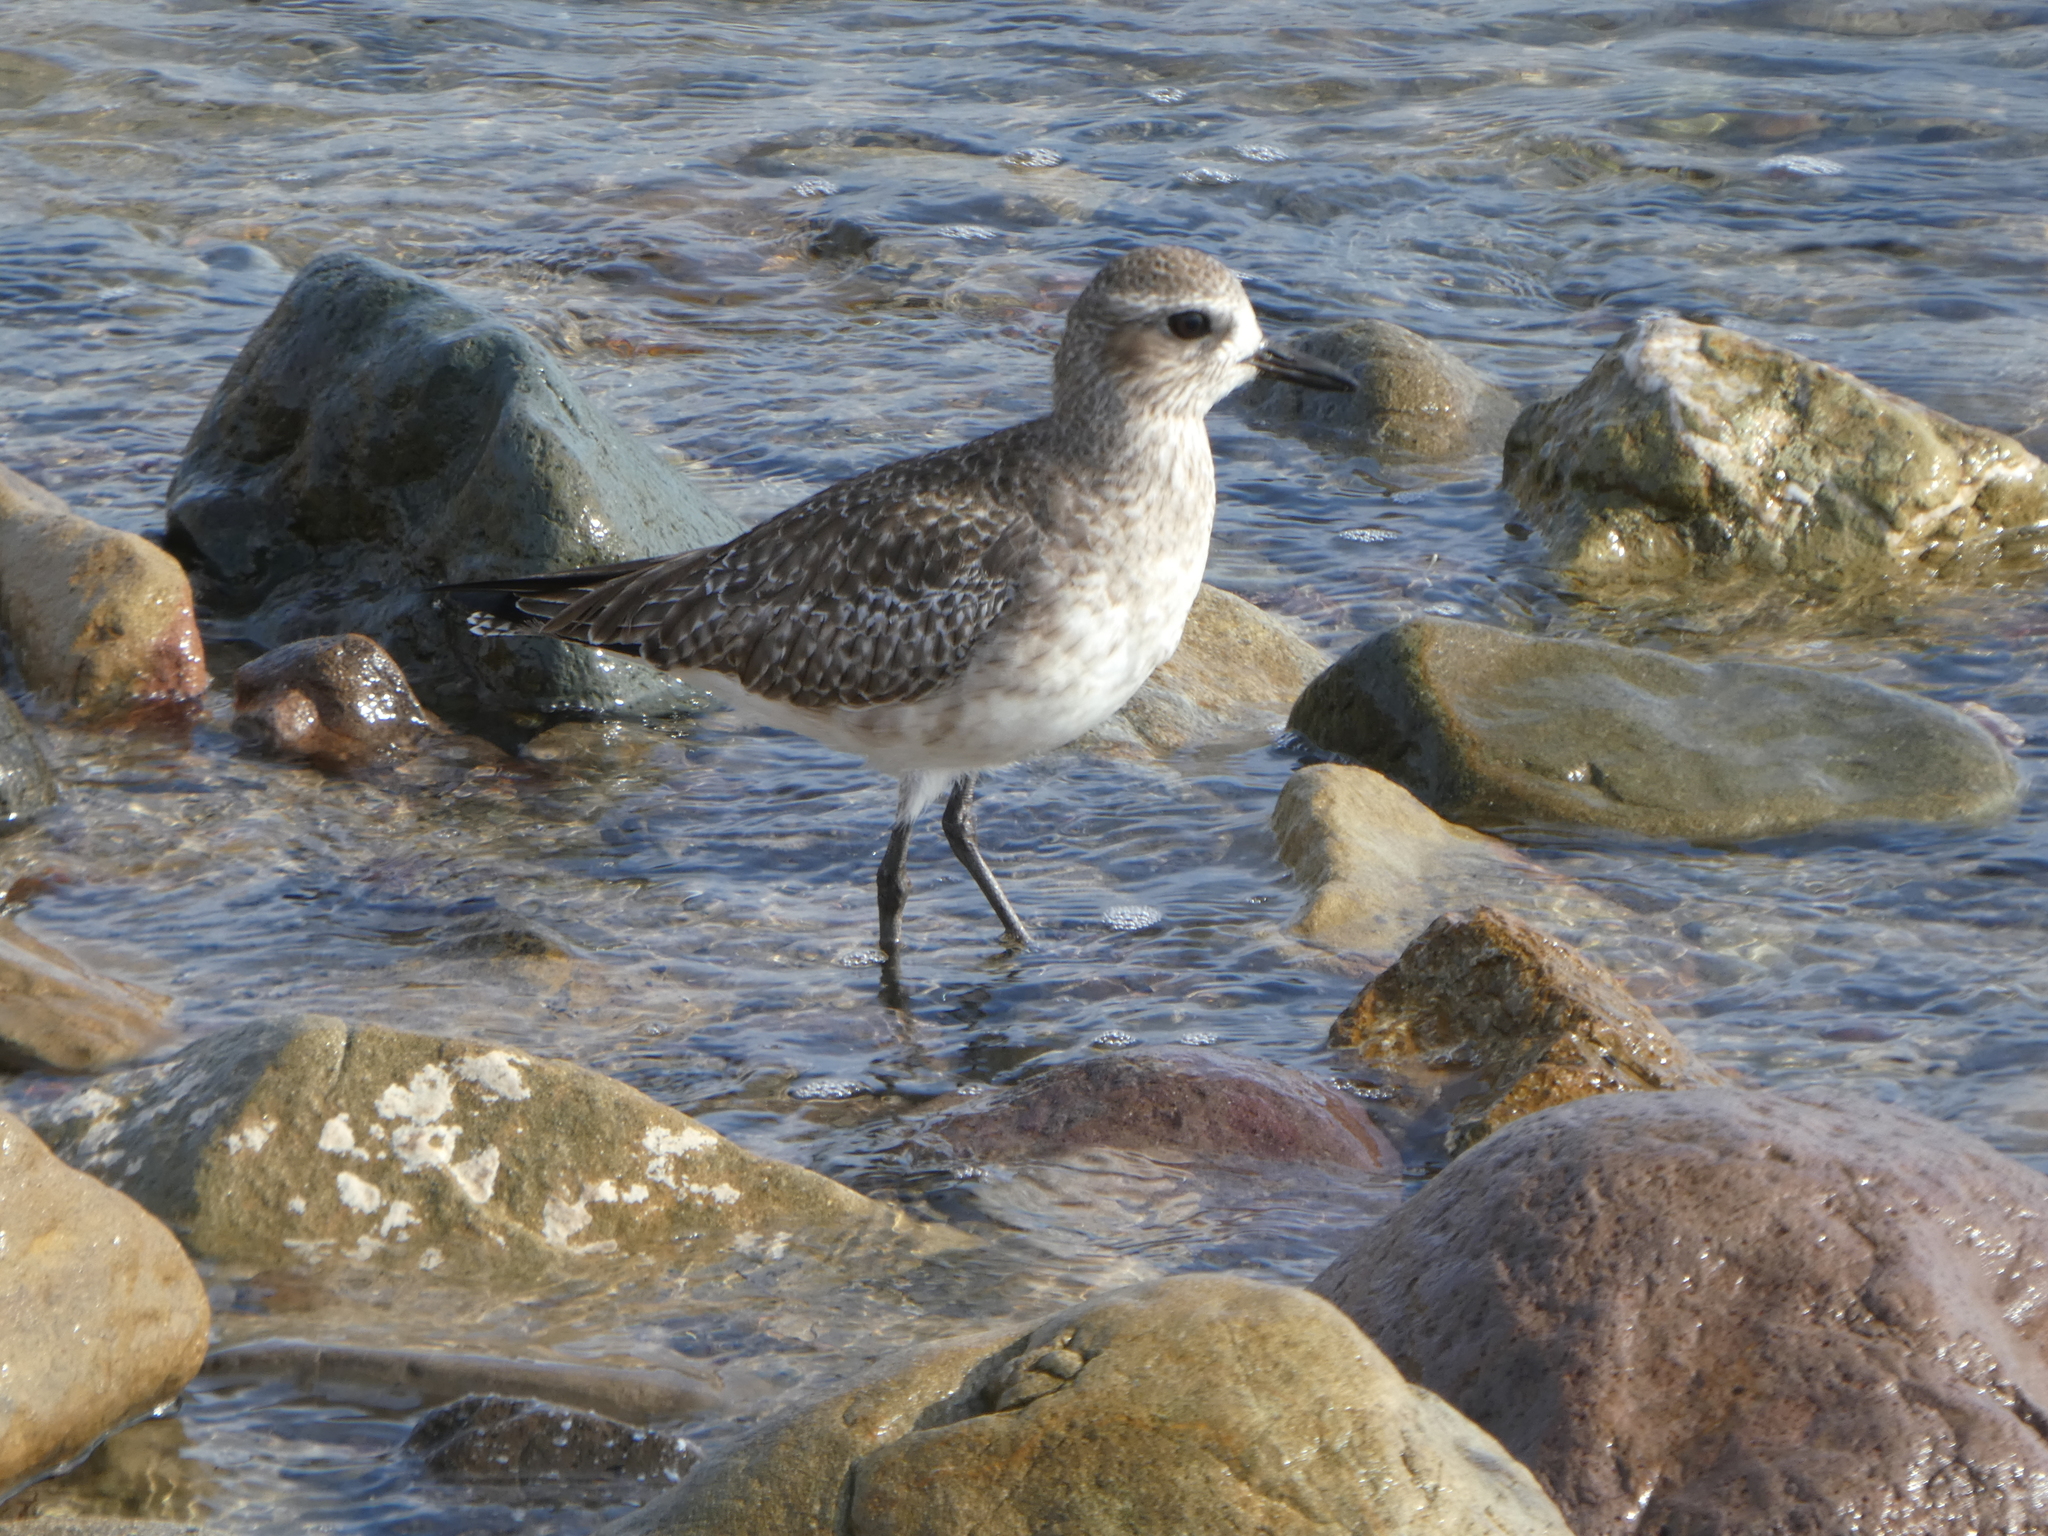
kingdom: Animalia
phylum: Chordata
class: Aves
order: Charadriiformes
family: Charadriidae
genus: Pluvialis
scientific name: Pluvialis squatarola
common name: Grey plover
